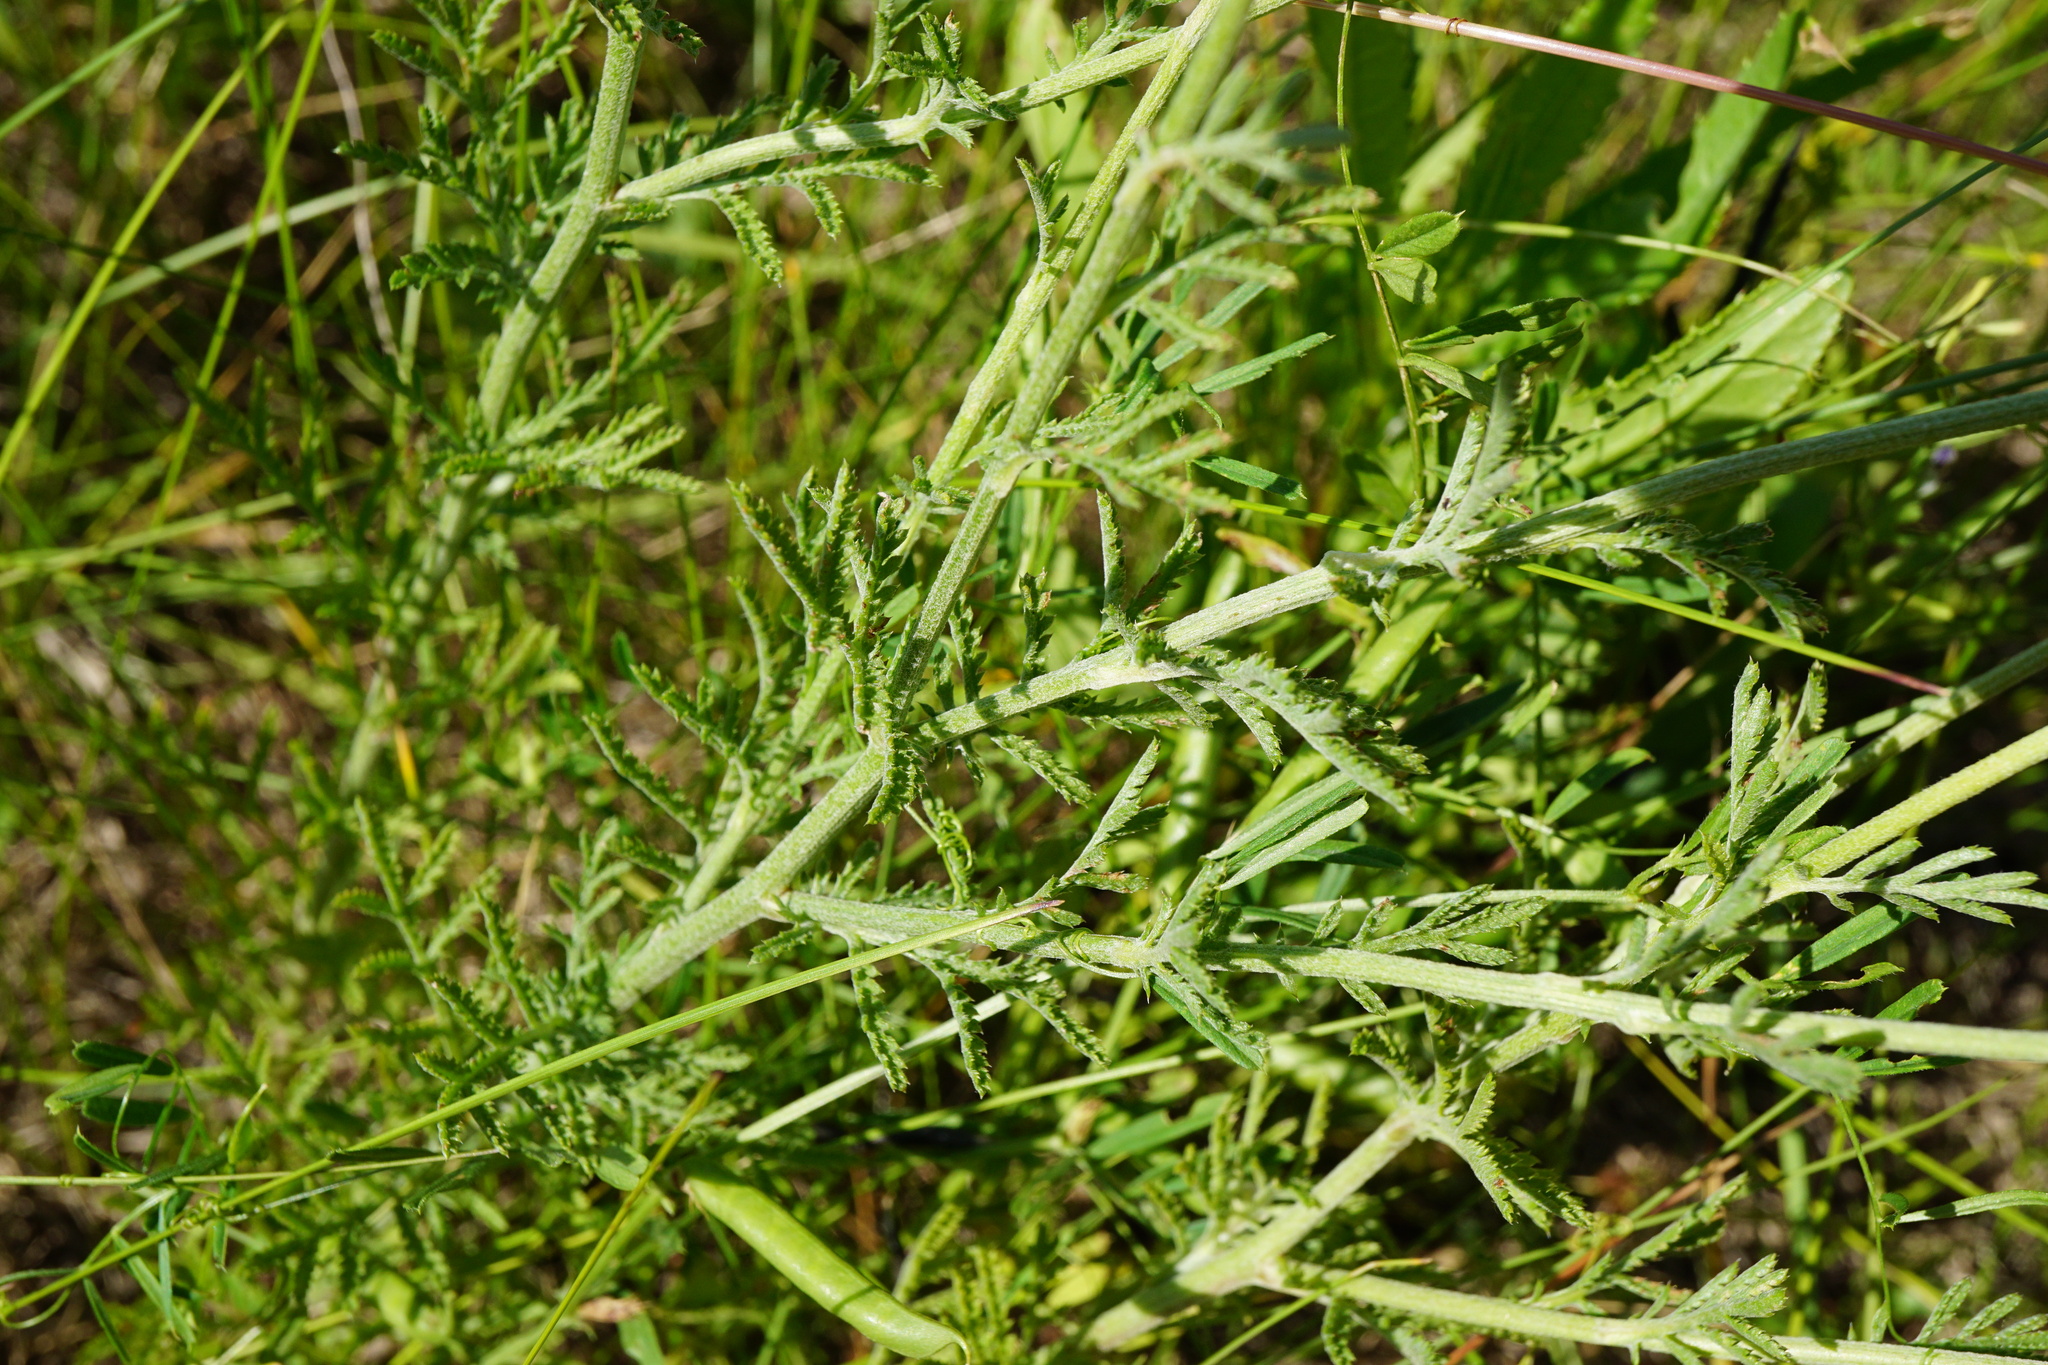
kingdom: Plantae
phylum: Tracheophyta
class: Magnoliopsida
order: Asterales
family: Asteraceae
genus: Cota
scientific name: Cota tinctoria
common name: Golden chamomile
